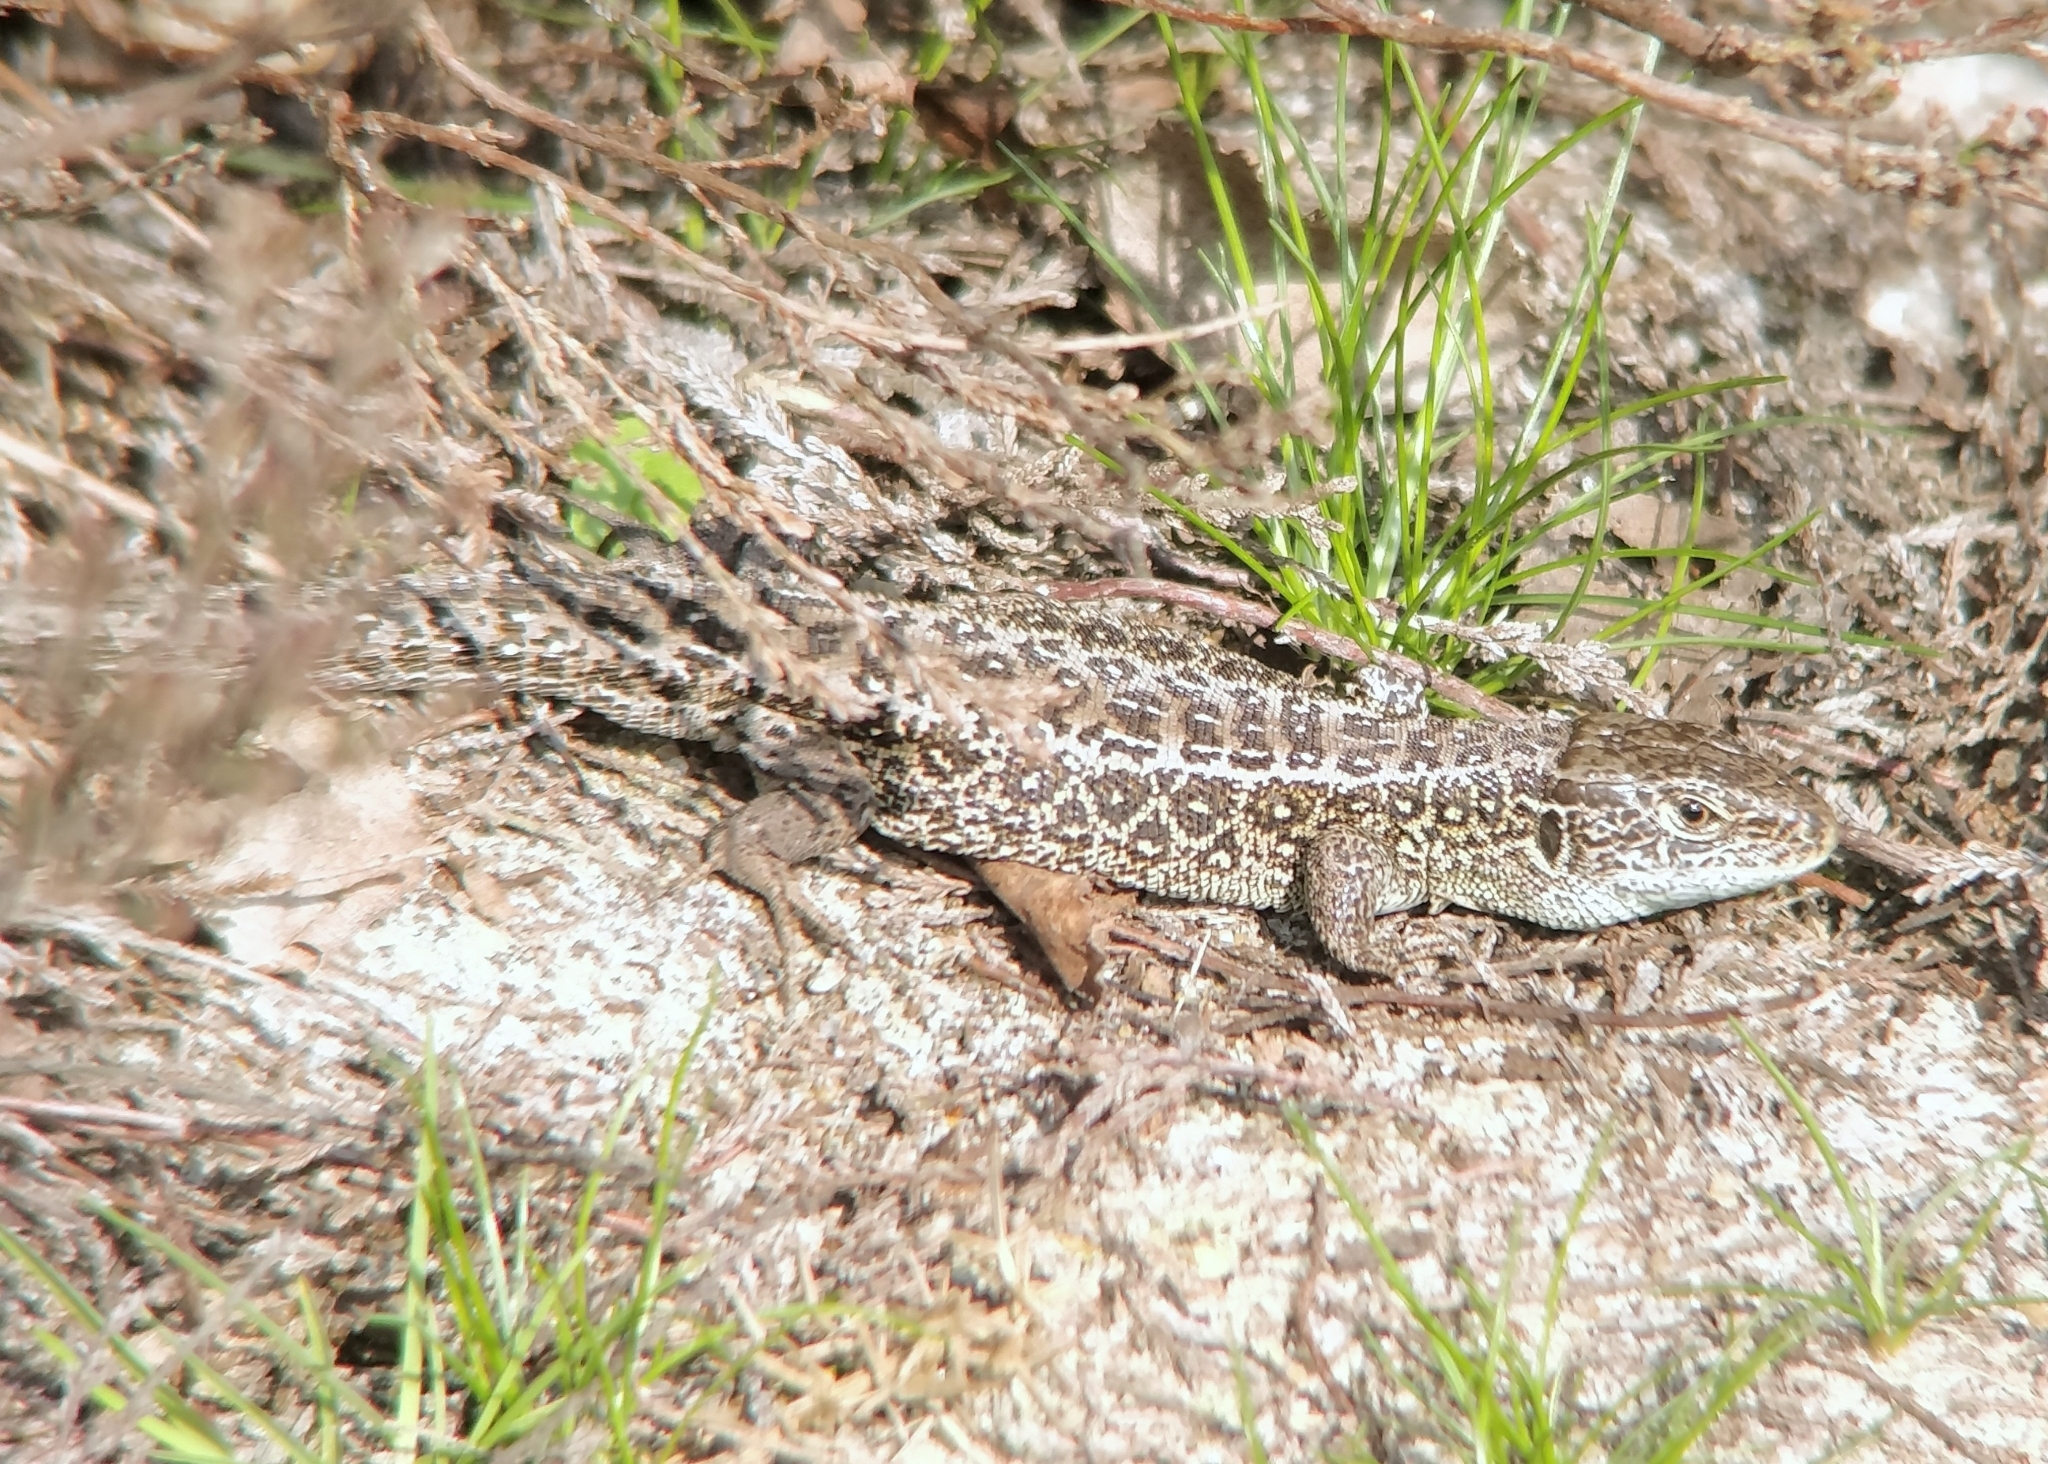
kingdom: Animalia
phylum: Chordata
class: Squamata
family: Lacertidae
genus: Lacerta
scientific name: Lacerta agilis
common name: Sand lizard
